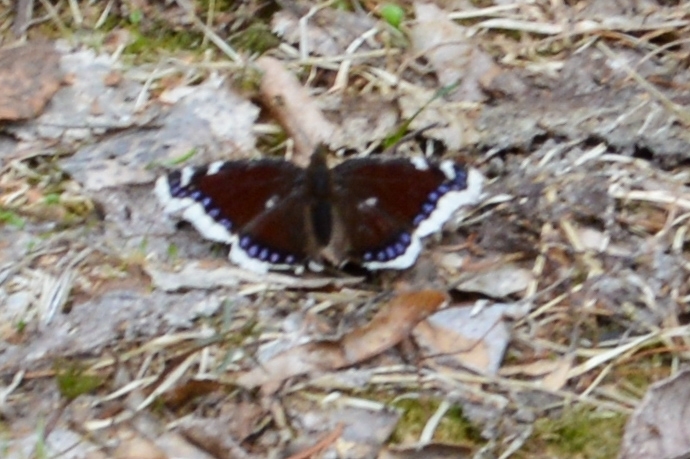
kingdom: Animalia
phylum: Arthropoda
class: Insecta
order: Lepidoptera
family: Nymphalidae
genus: Nymphalis
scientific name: Nymphalis antiopa
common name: Camberwell beauty
